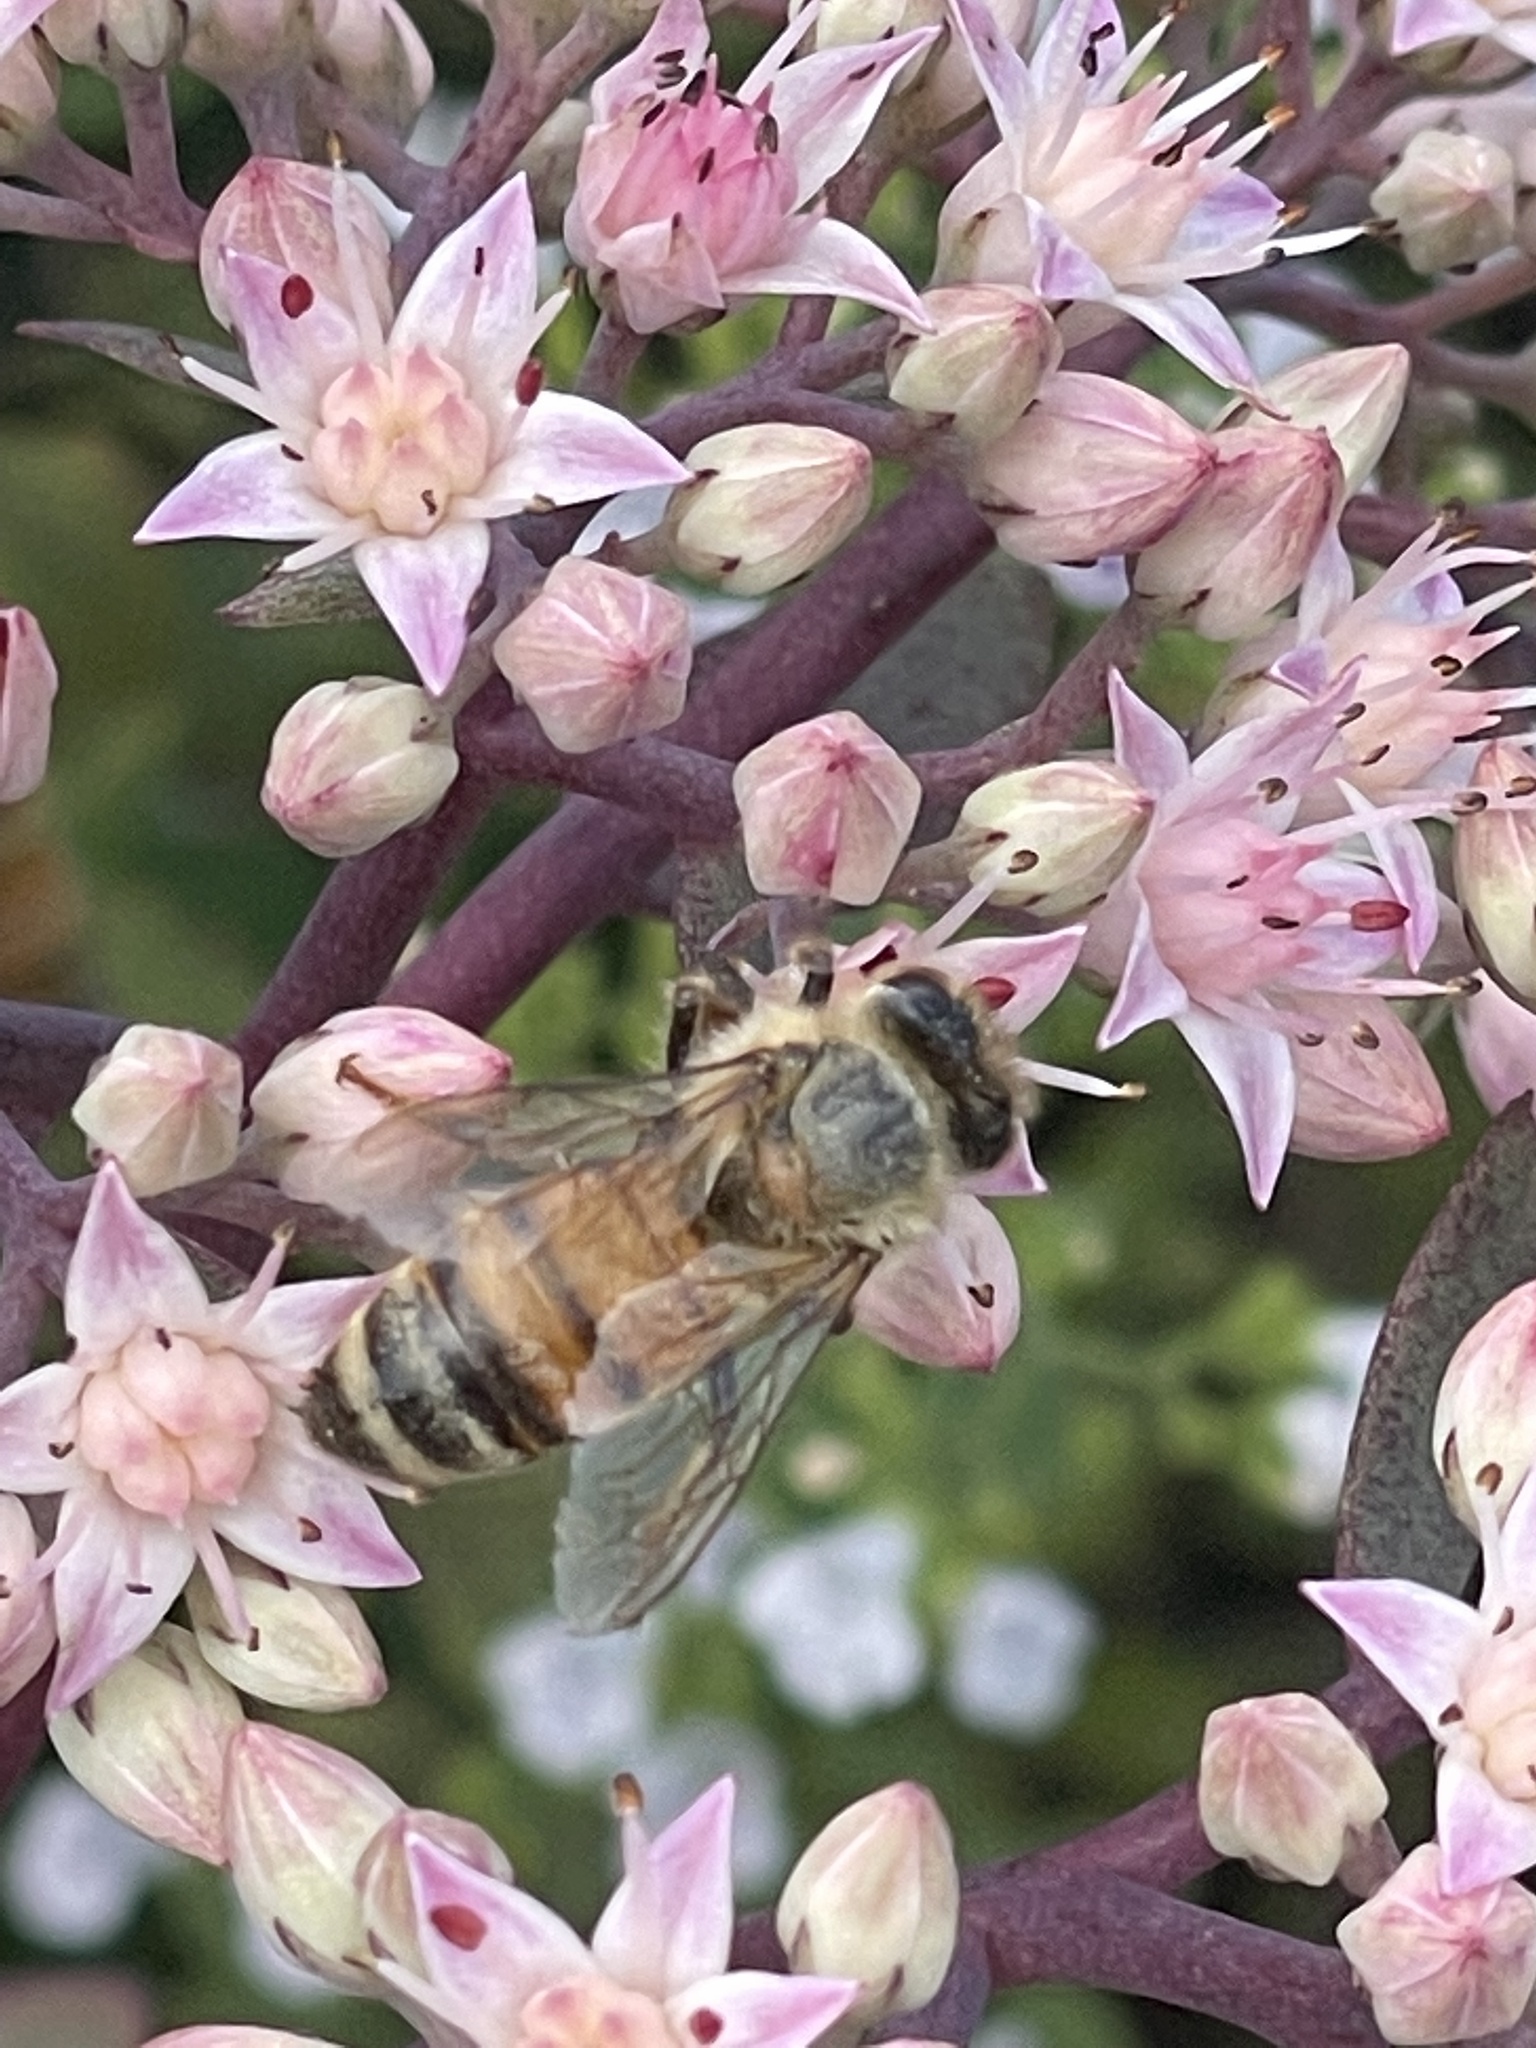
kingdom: Animalia
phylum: Arthropoda
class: Insecta
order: Hymenoptera
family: Apidae
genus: Apis
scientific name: Apis mellifera
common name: Honey bee
